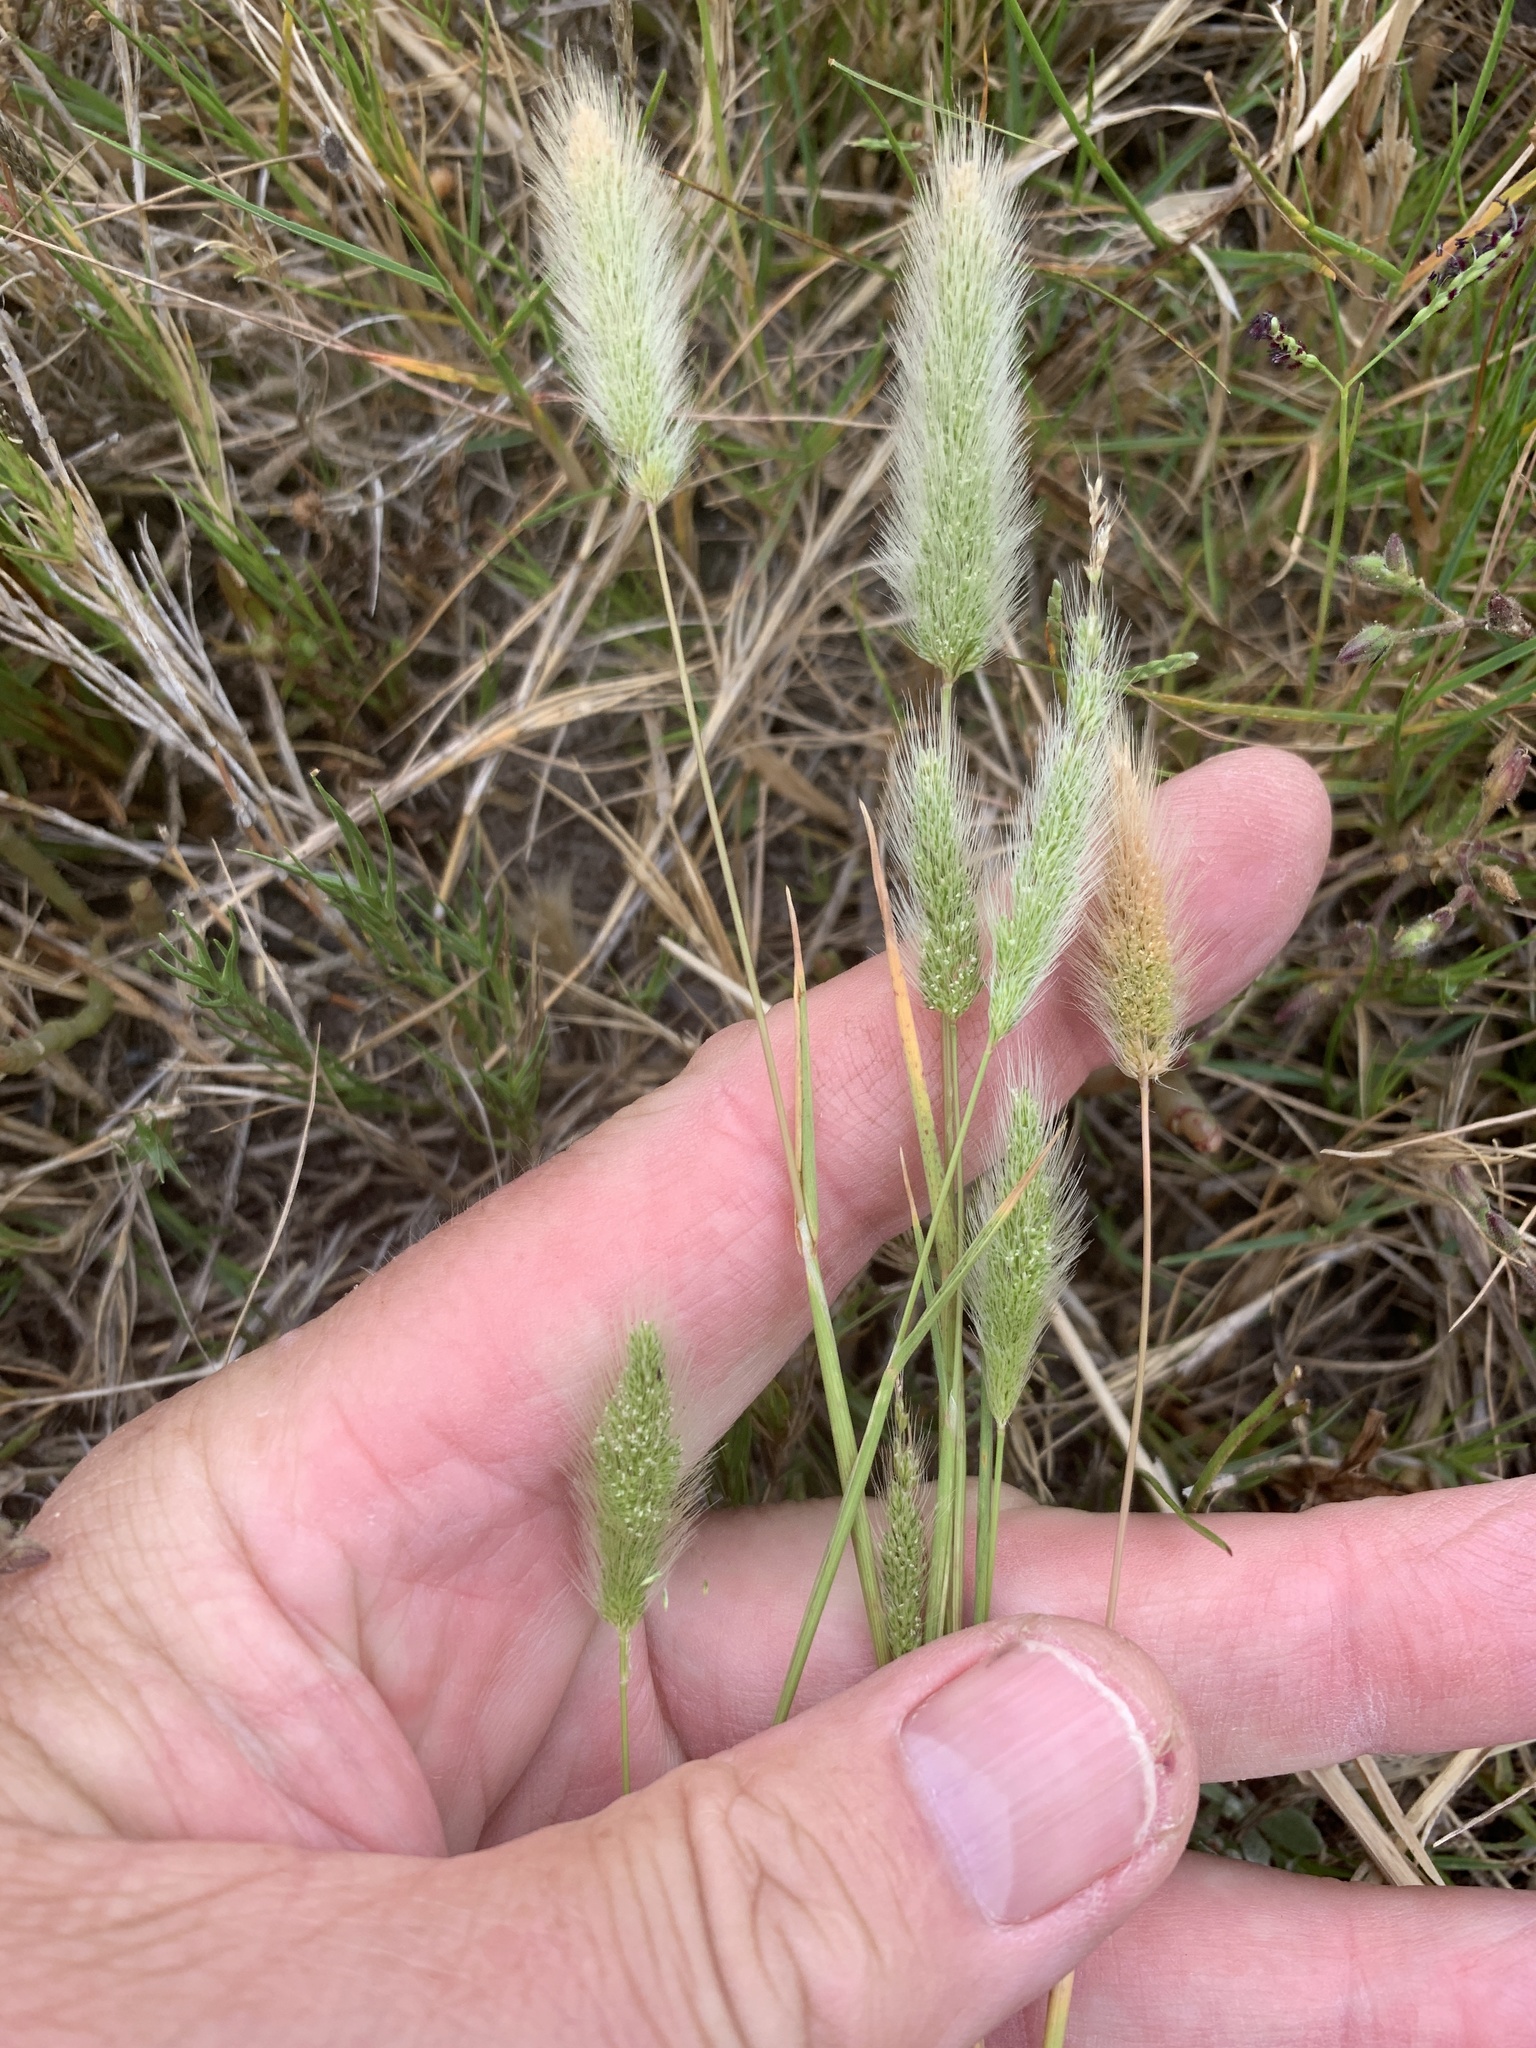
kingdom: Plantae
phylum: Tracheophyta
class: Liliopsida
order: Poales
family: Poaceae
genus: Polypogon
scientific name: Polypogon monspeliensis
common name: Annual rabbitsfoot grass
